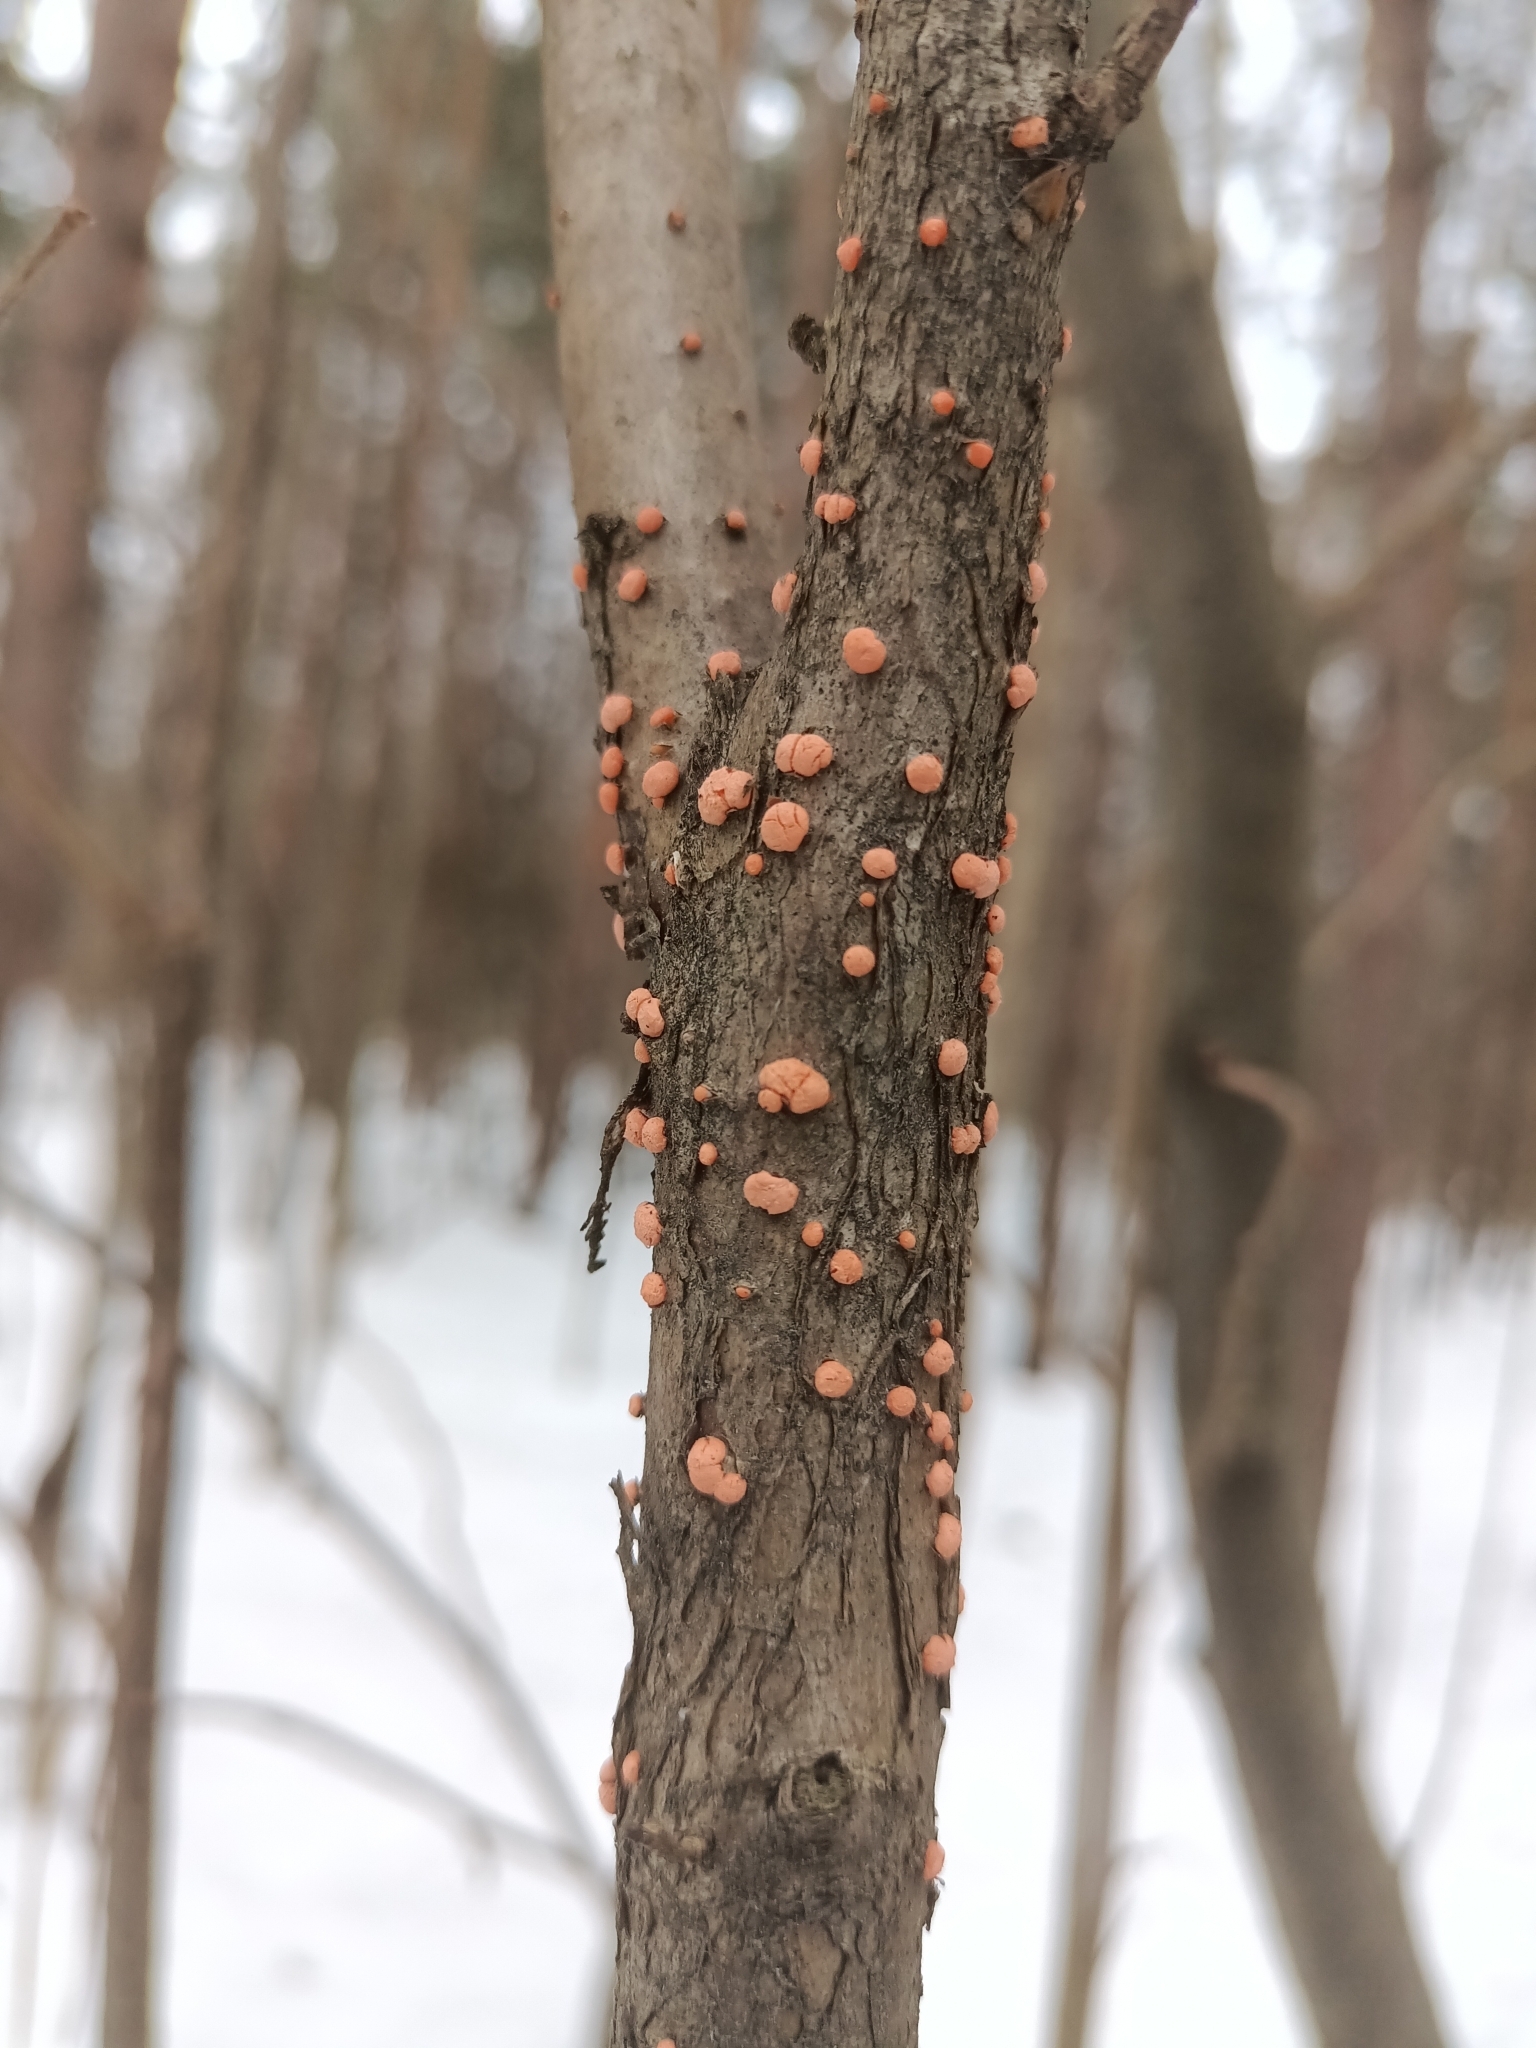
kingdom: Fungi
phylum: Ascomycota
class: Sordariomycetes
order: Hypocreales
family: Nectriaceae
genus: Nectria
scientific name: Nectria cinnabarina
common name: Coral spot
